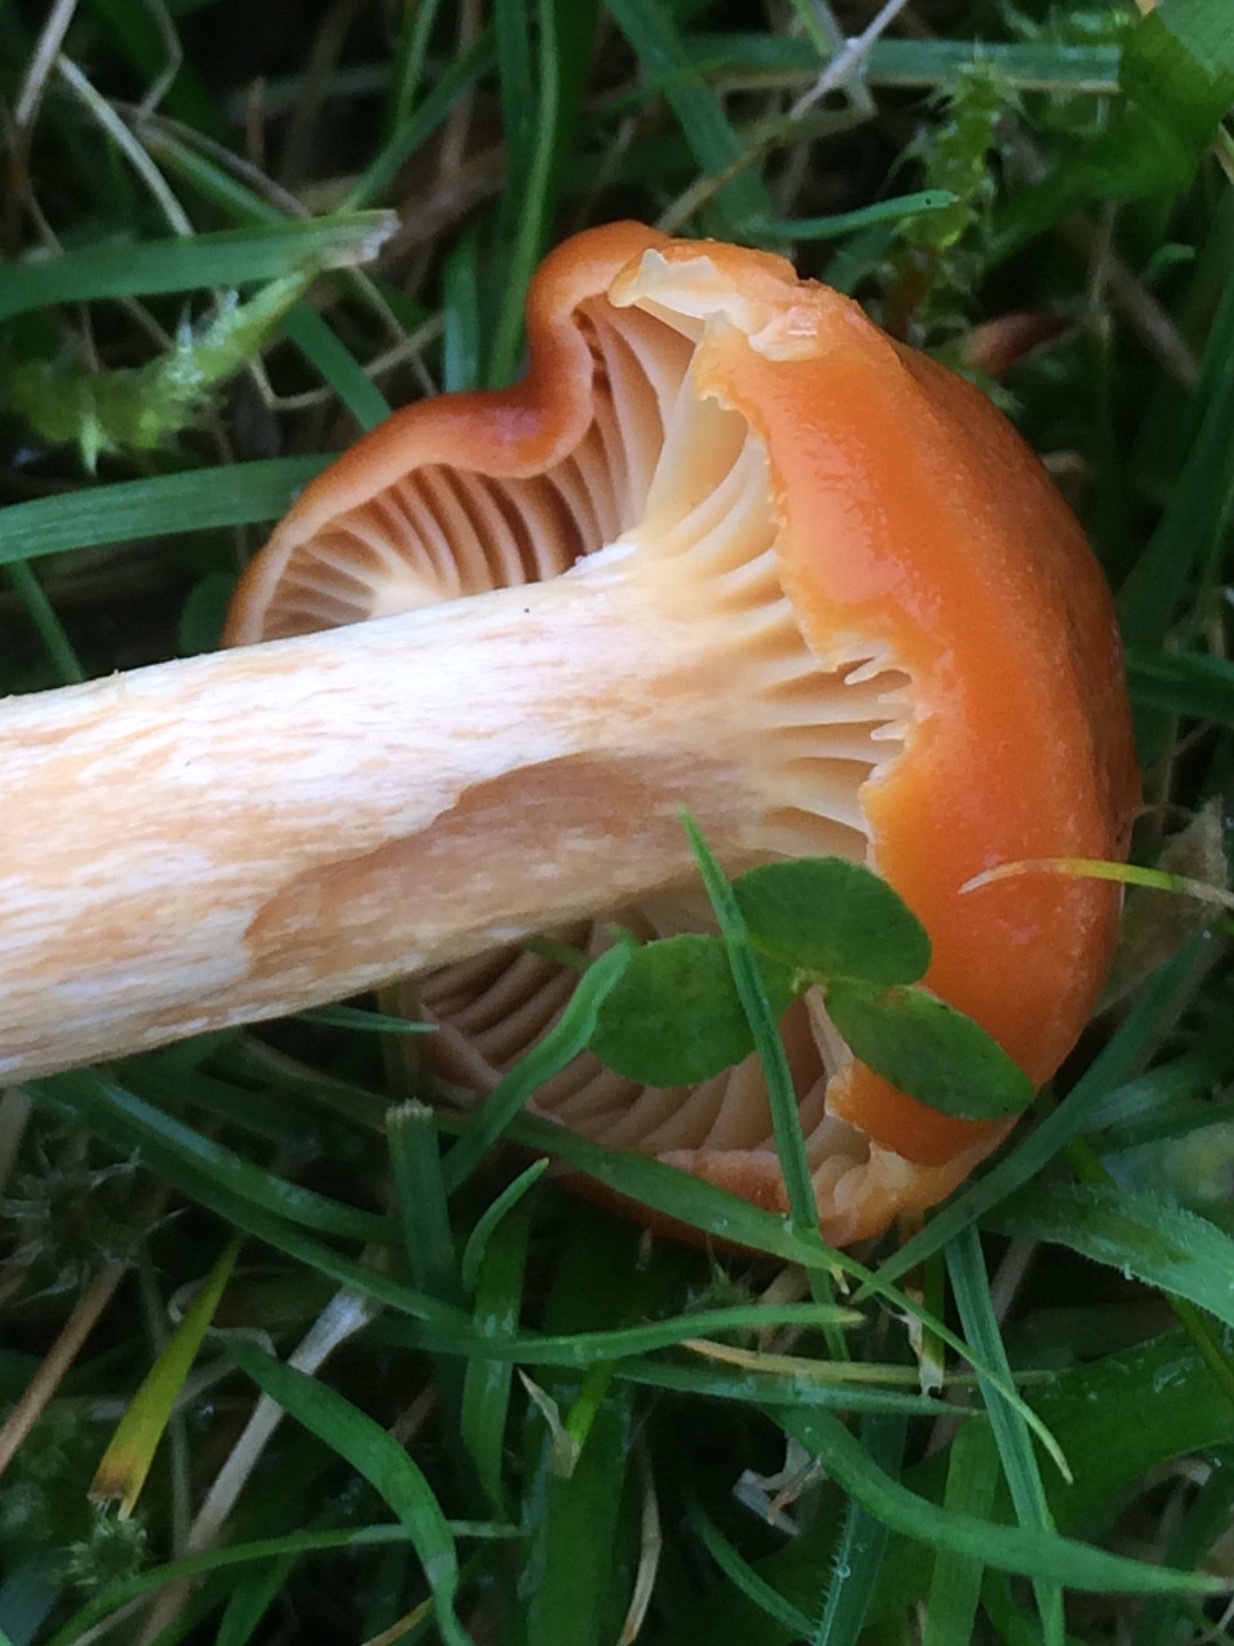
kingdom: Fungi
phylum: Basidiomycota
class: Agaricomycetes
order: Agaricales
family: Hygrophoraceae
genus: Cuphophyllus
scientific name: Cuphophyllus pratensis
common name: Meadow waxcap
